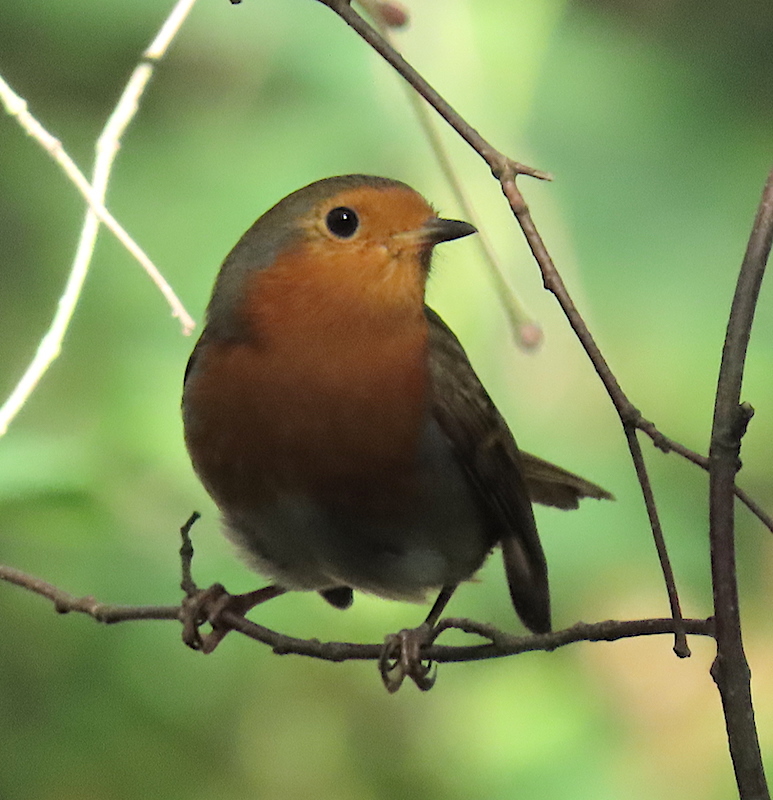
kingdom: Animalia
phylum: Chordata
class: Aves
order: Passeriformes
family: Muscicapidae
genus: Erithacus
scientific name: Erithacus rubecula
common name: European robin
